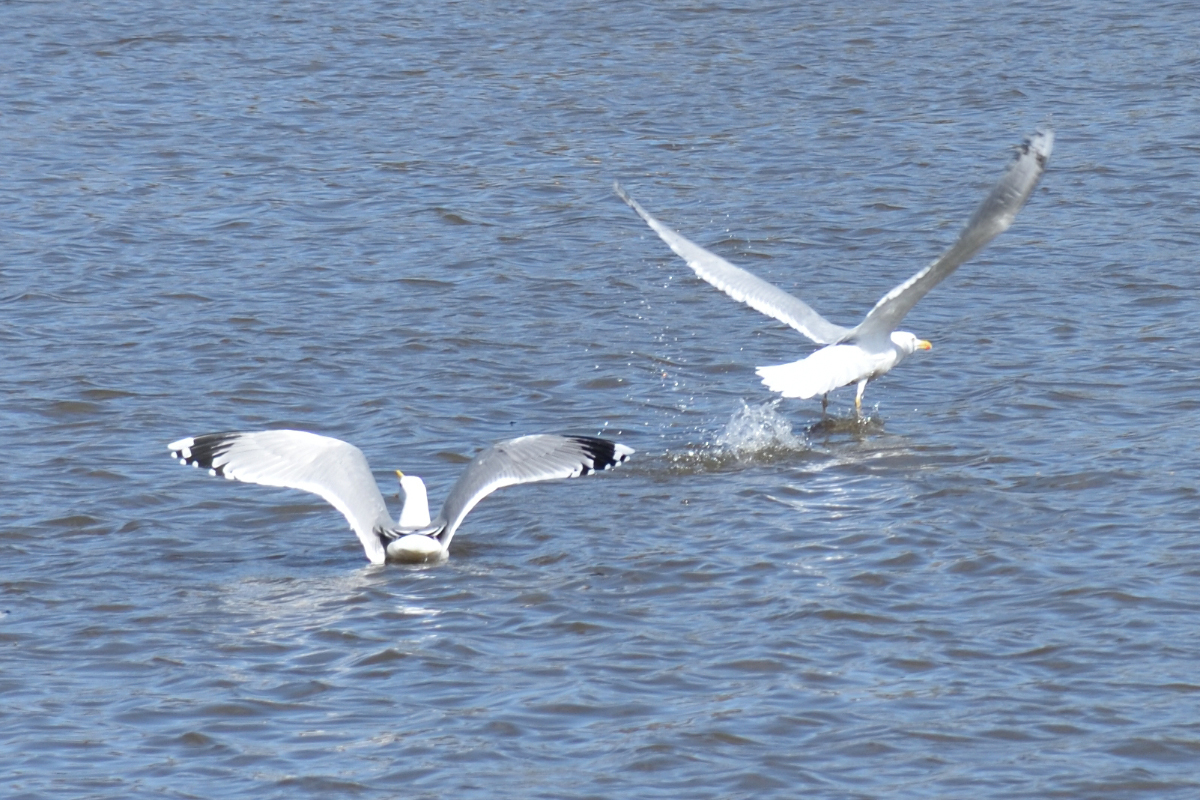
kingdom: Animalia
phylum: Chordata
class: Aves
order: Charadriiformes
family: Laridae
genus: Larus
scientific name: Larus argentatus
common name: Herring gull
